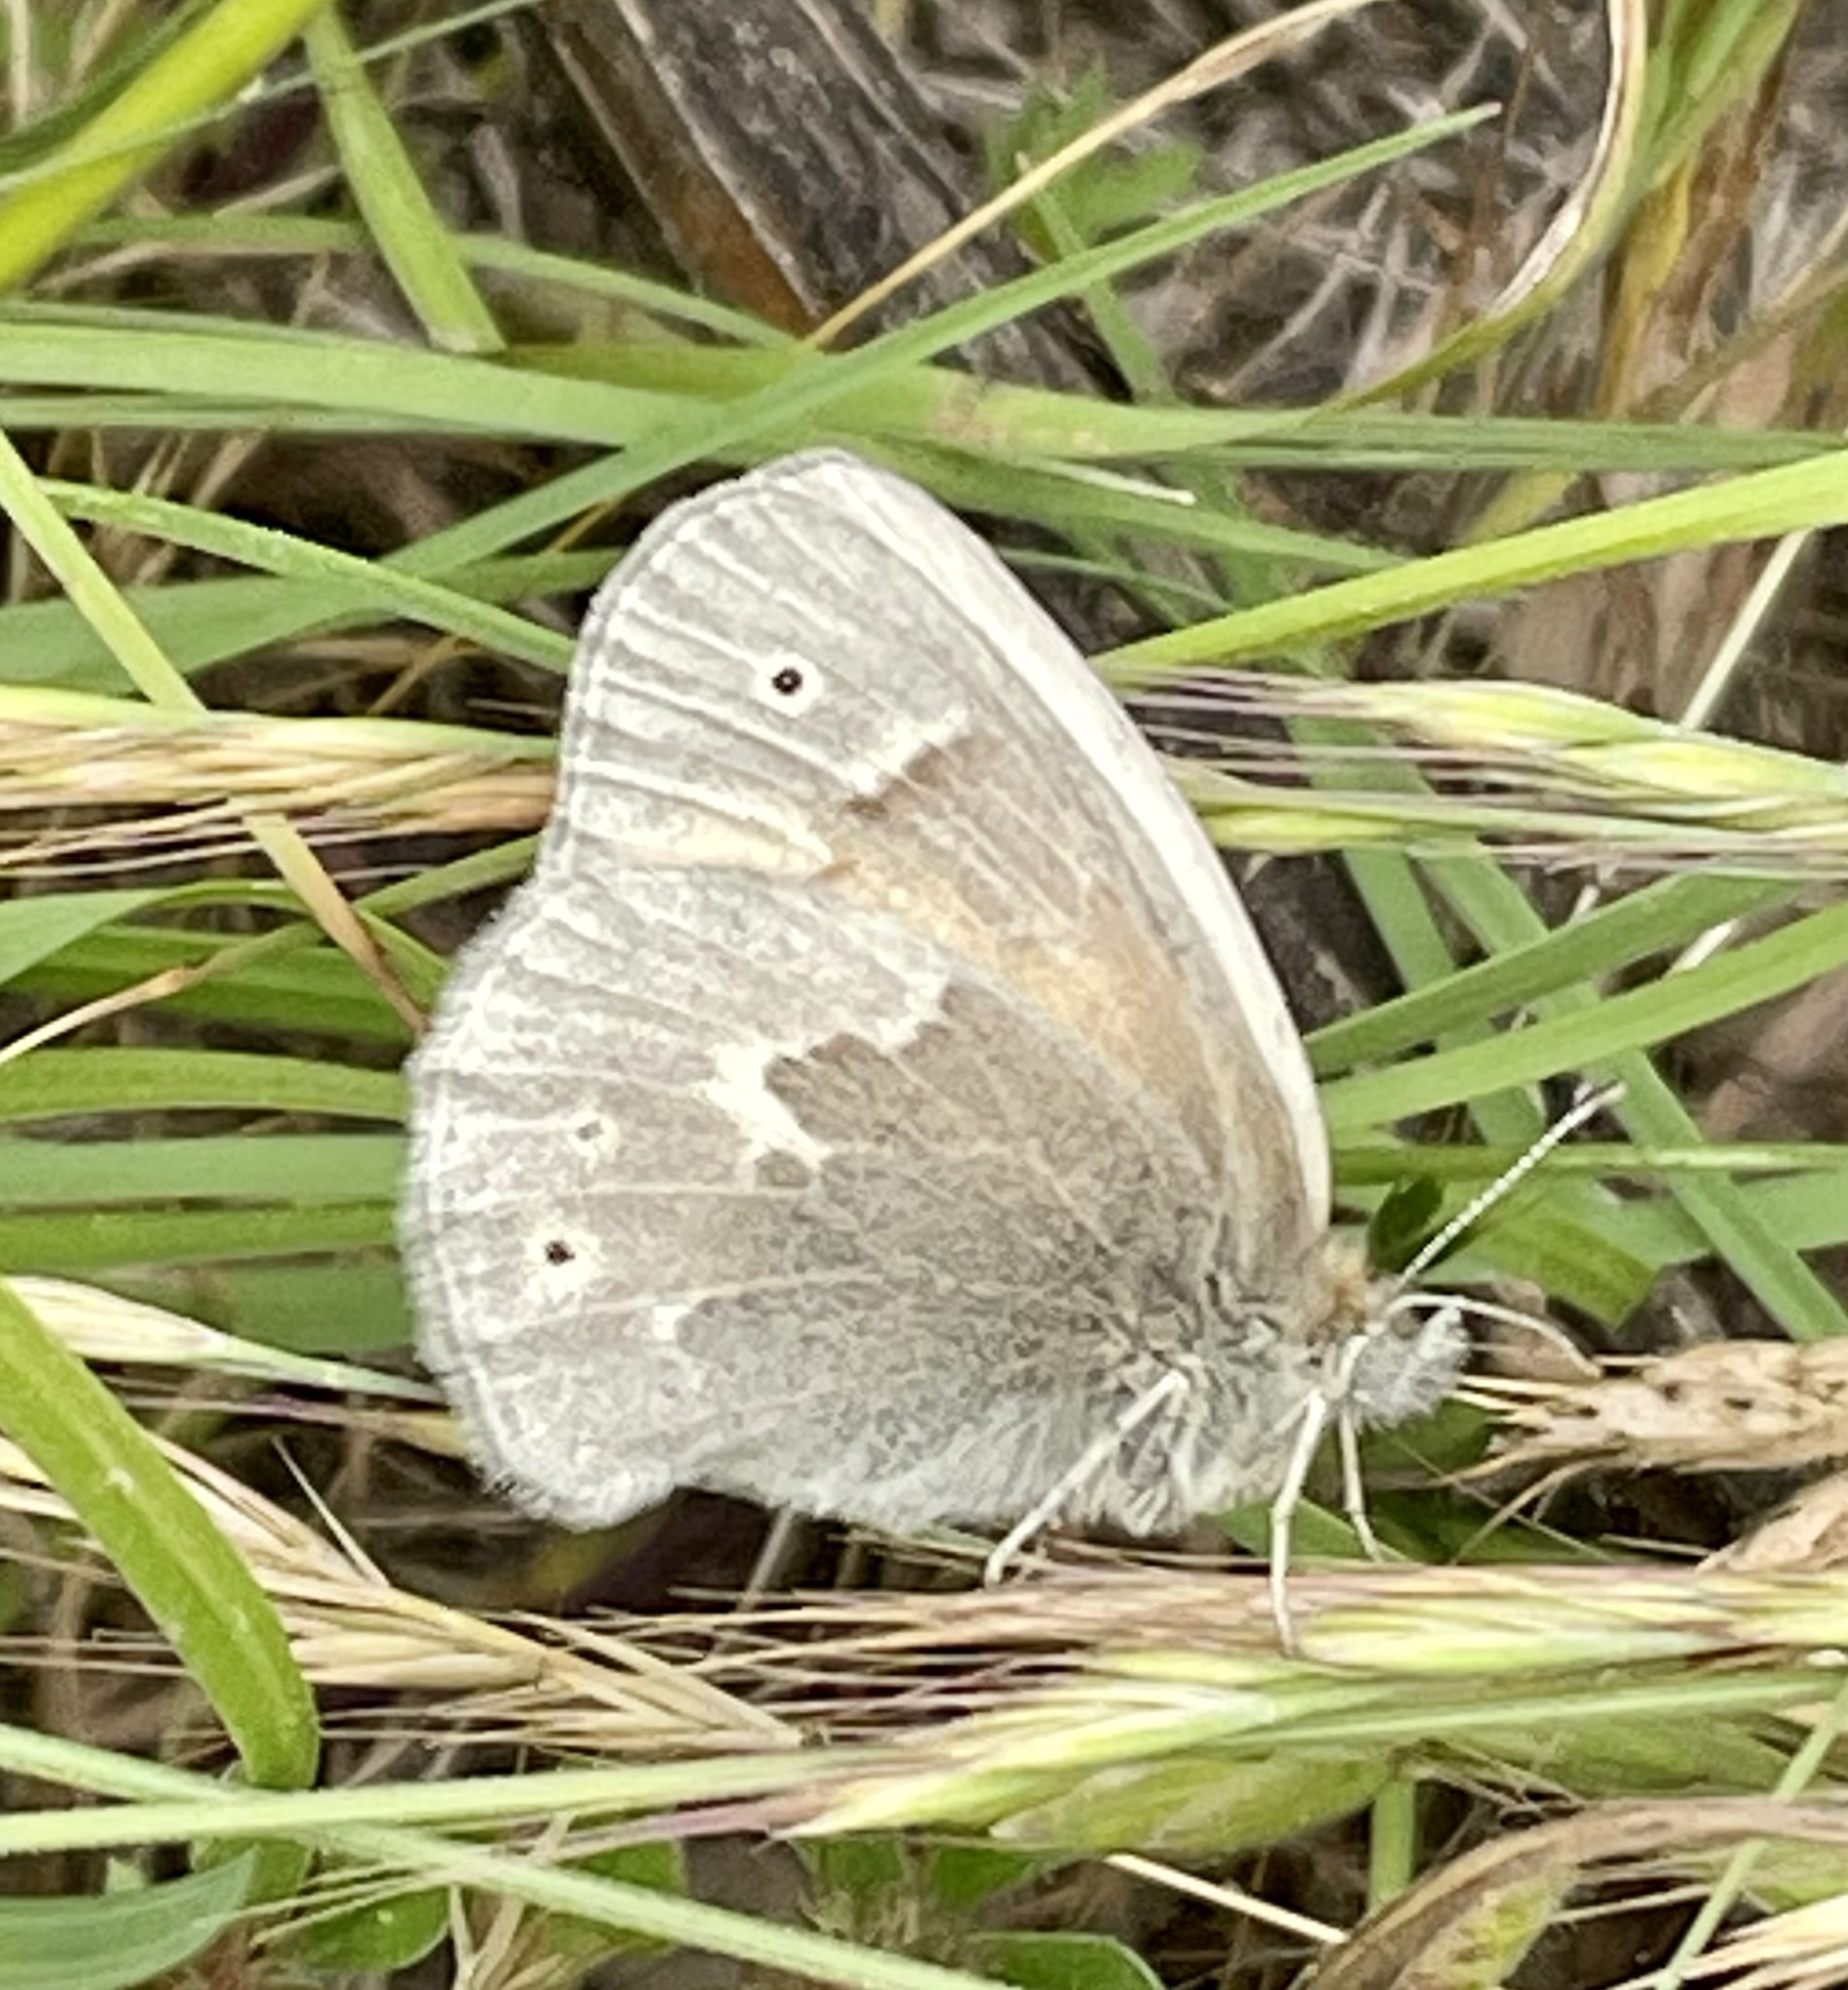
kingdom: Animalia
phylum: Arthropoda
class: Insecta
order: Lepidoptera
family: Nymphalidae
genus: Coenonympha
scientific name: Coenonympha california
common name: Common ringlet
